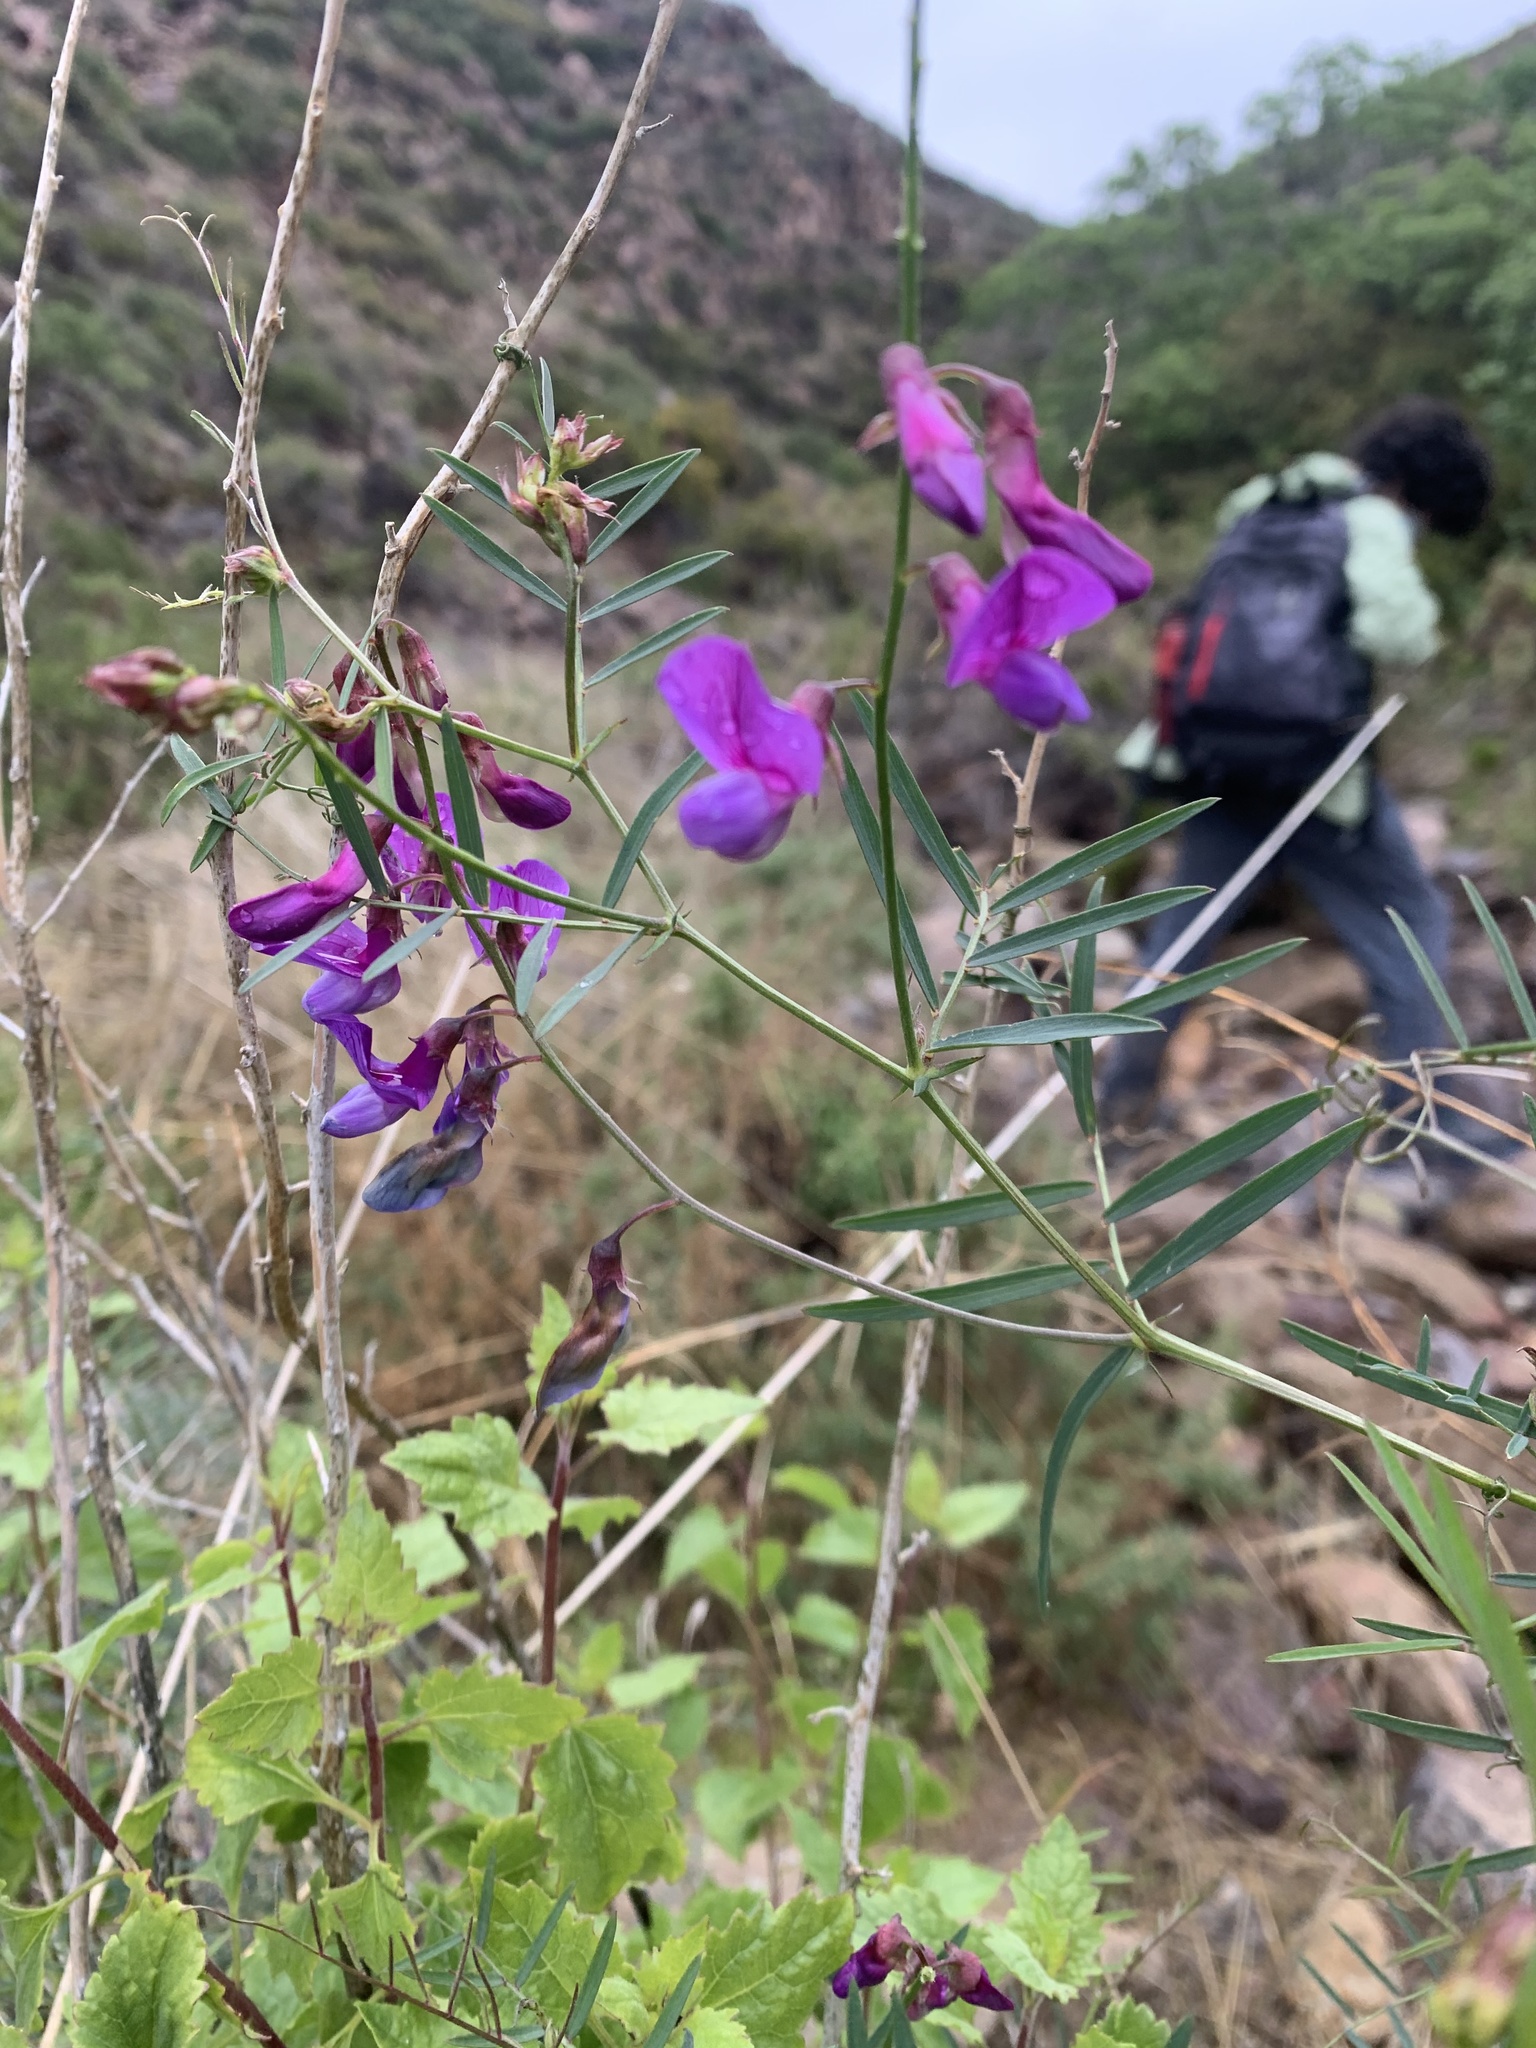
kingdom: Plantae
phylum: Tracheophyta
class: Magnoliopsida
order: Fabales
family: Fabaceae
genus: Lathyrus
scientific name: Lathyrus vestitus
